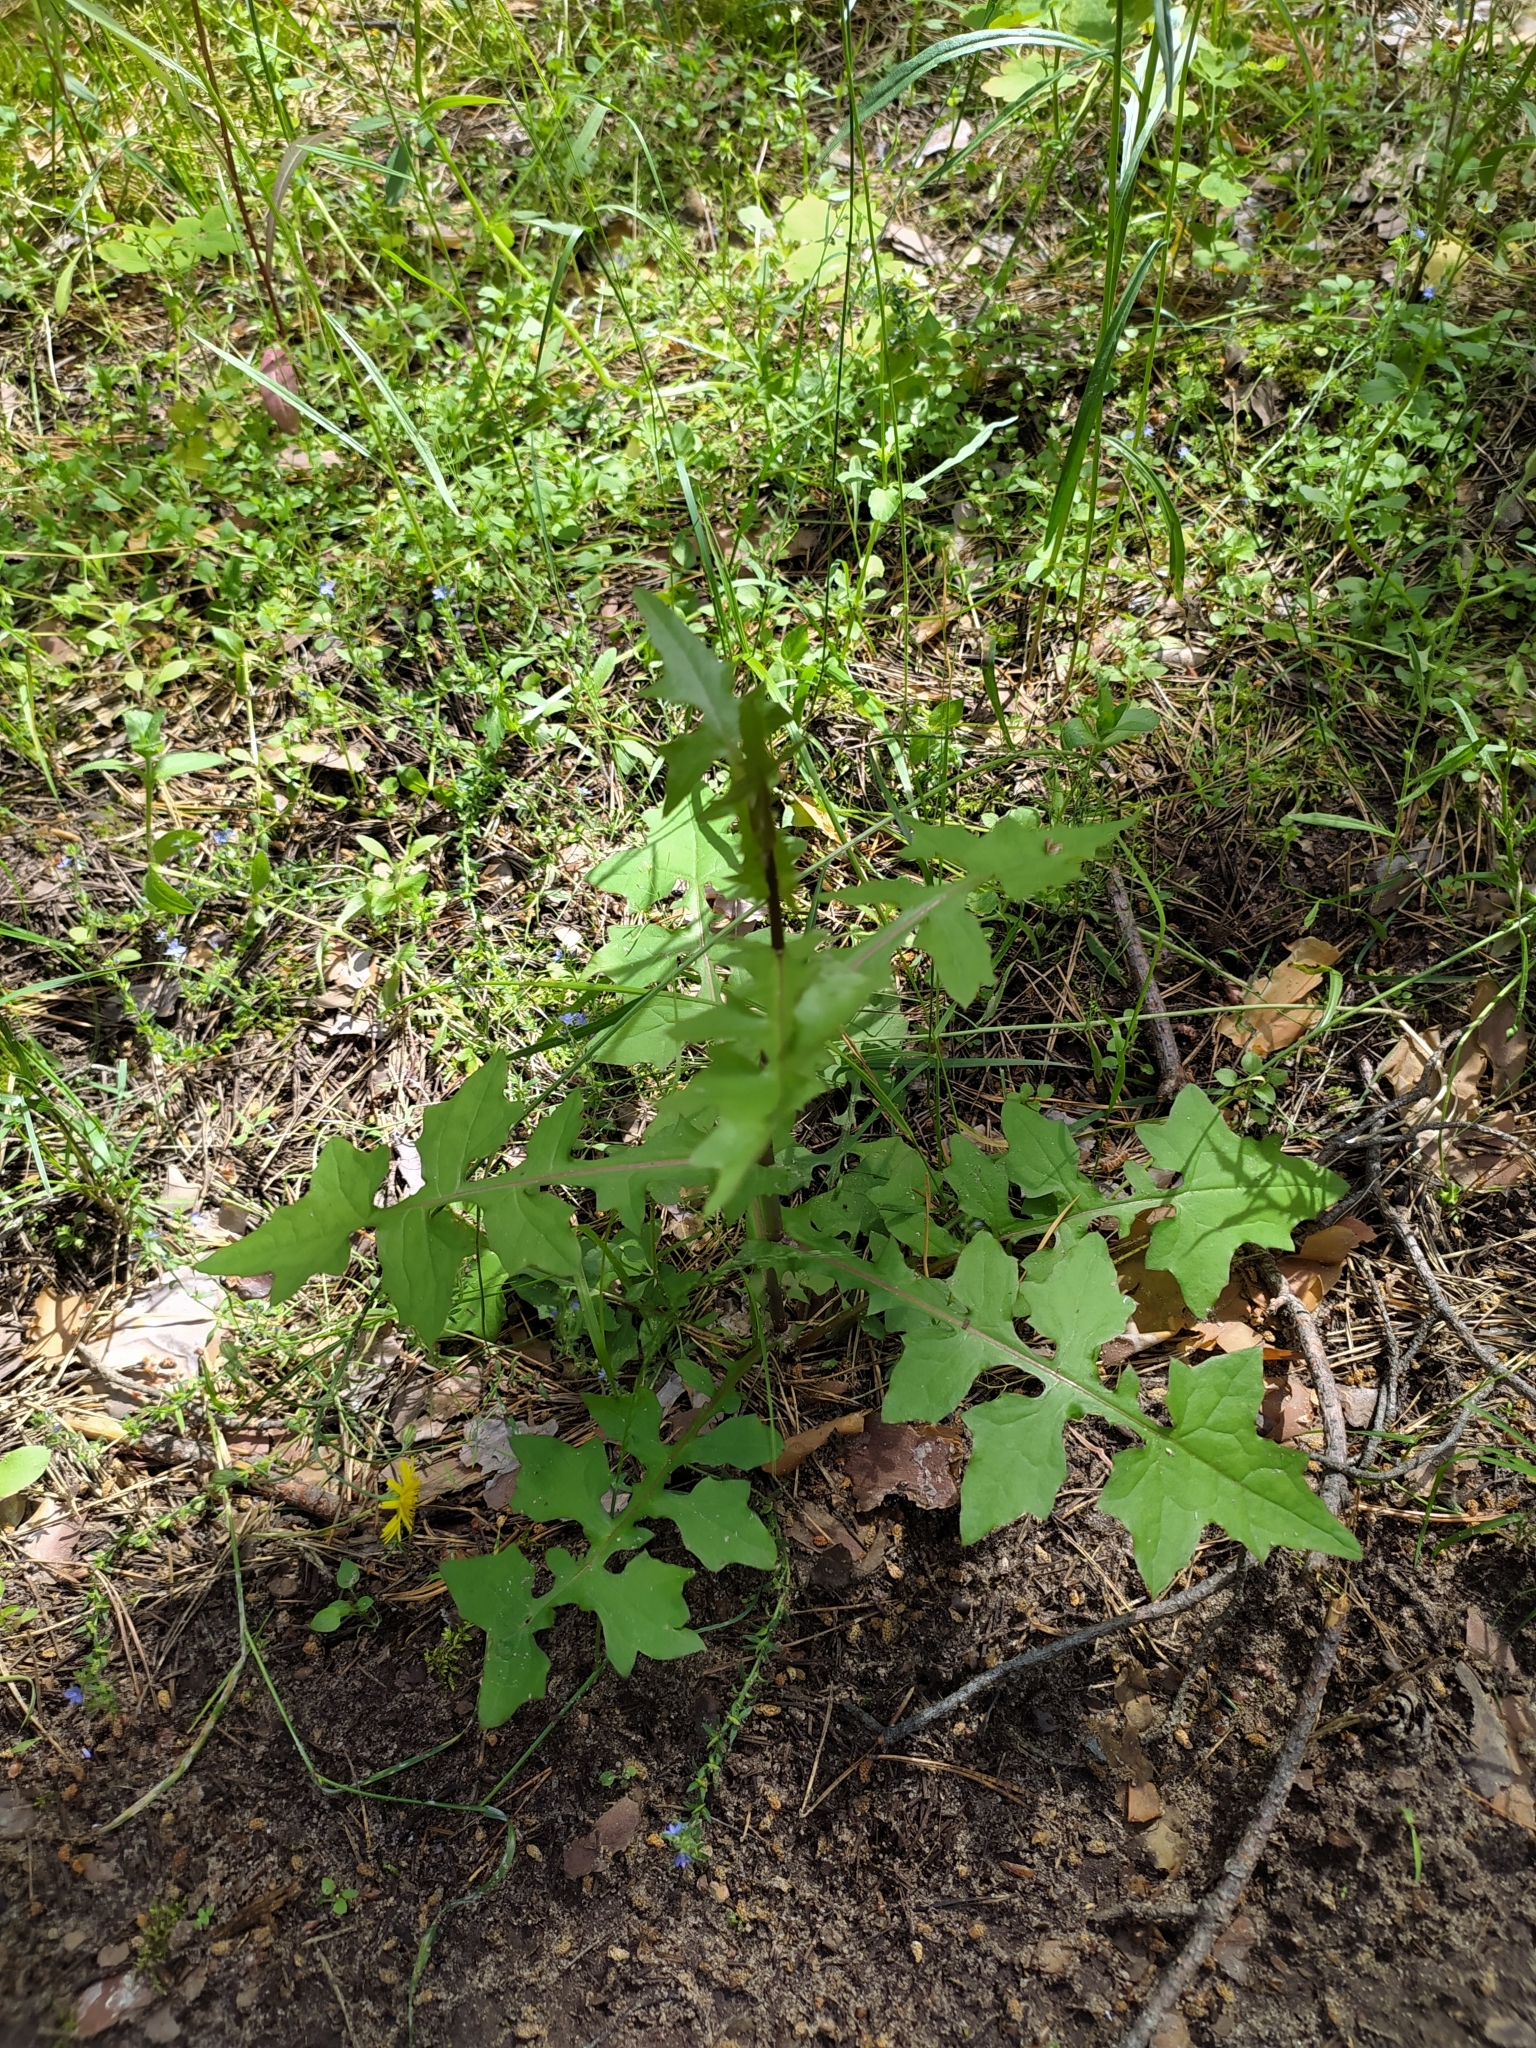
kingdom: Plantae
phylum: Tracheophyta
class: Magnoliopsida
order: Asterales
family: Asteraceae
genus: Mycelis
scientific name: Mycelis muralis
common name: Wall lettuce
